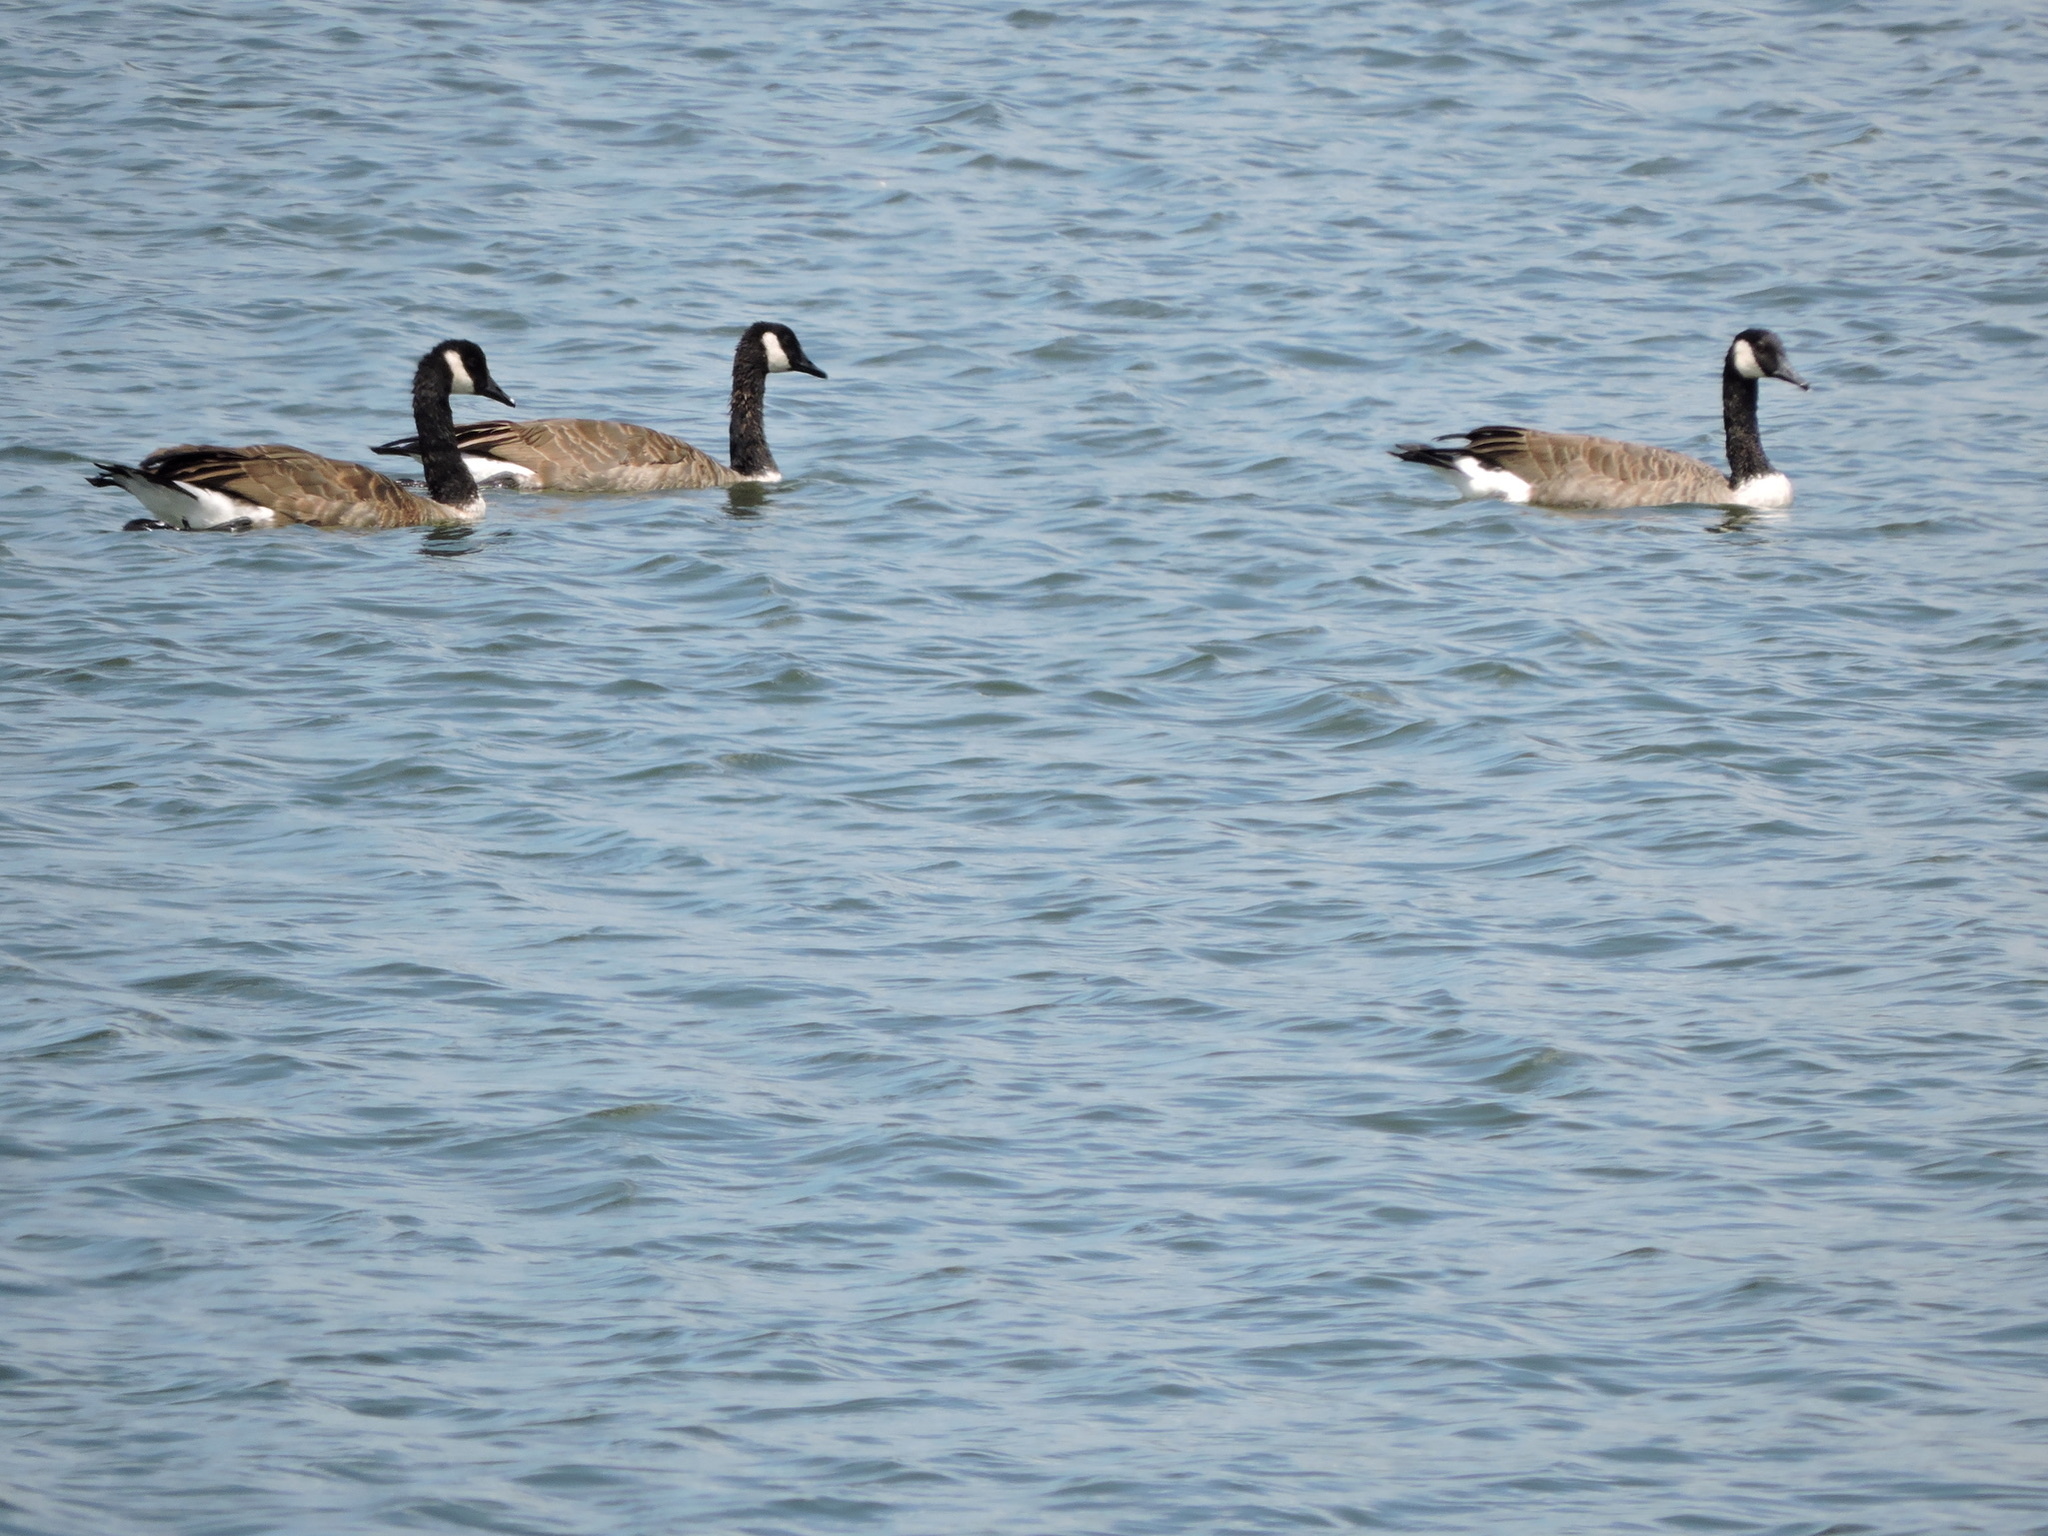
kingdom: Animalia
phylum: Chordata
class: Aves
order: Anseriformes
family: Anatidae
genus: Branta
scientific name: Branta canadensis
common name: Canada goose
